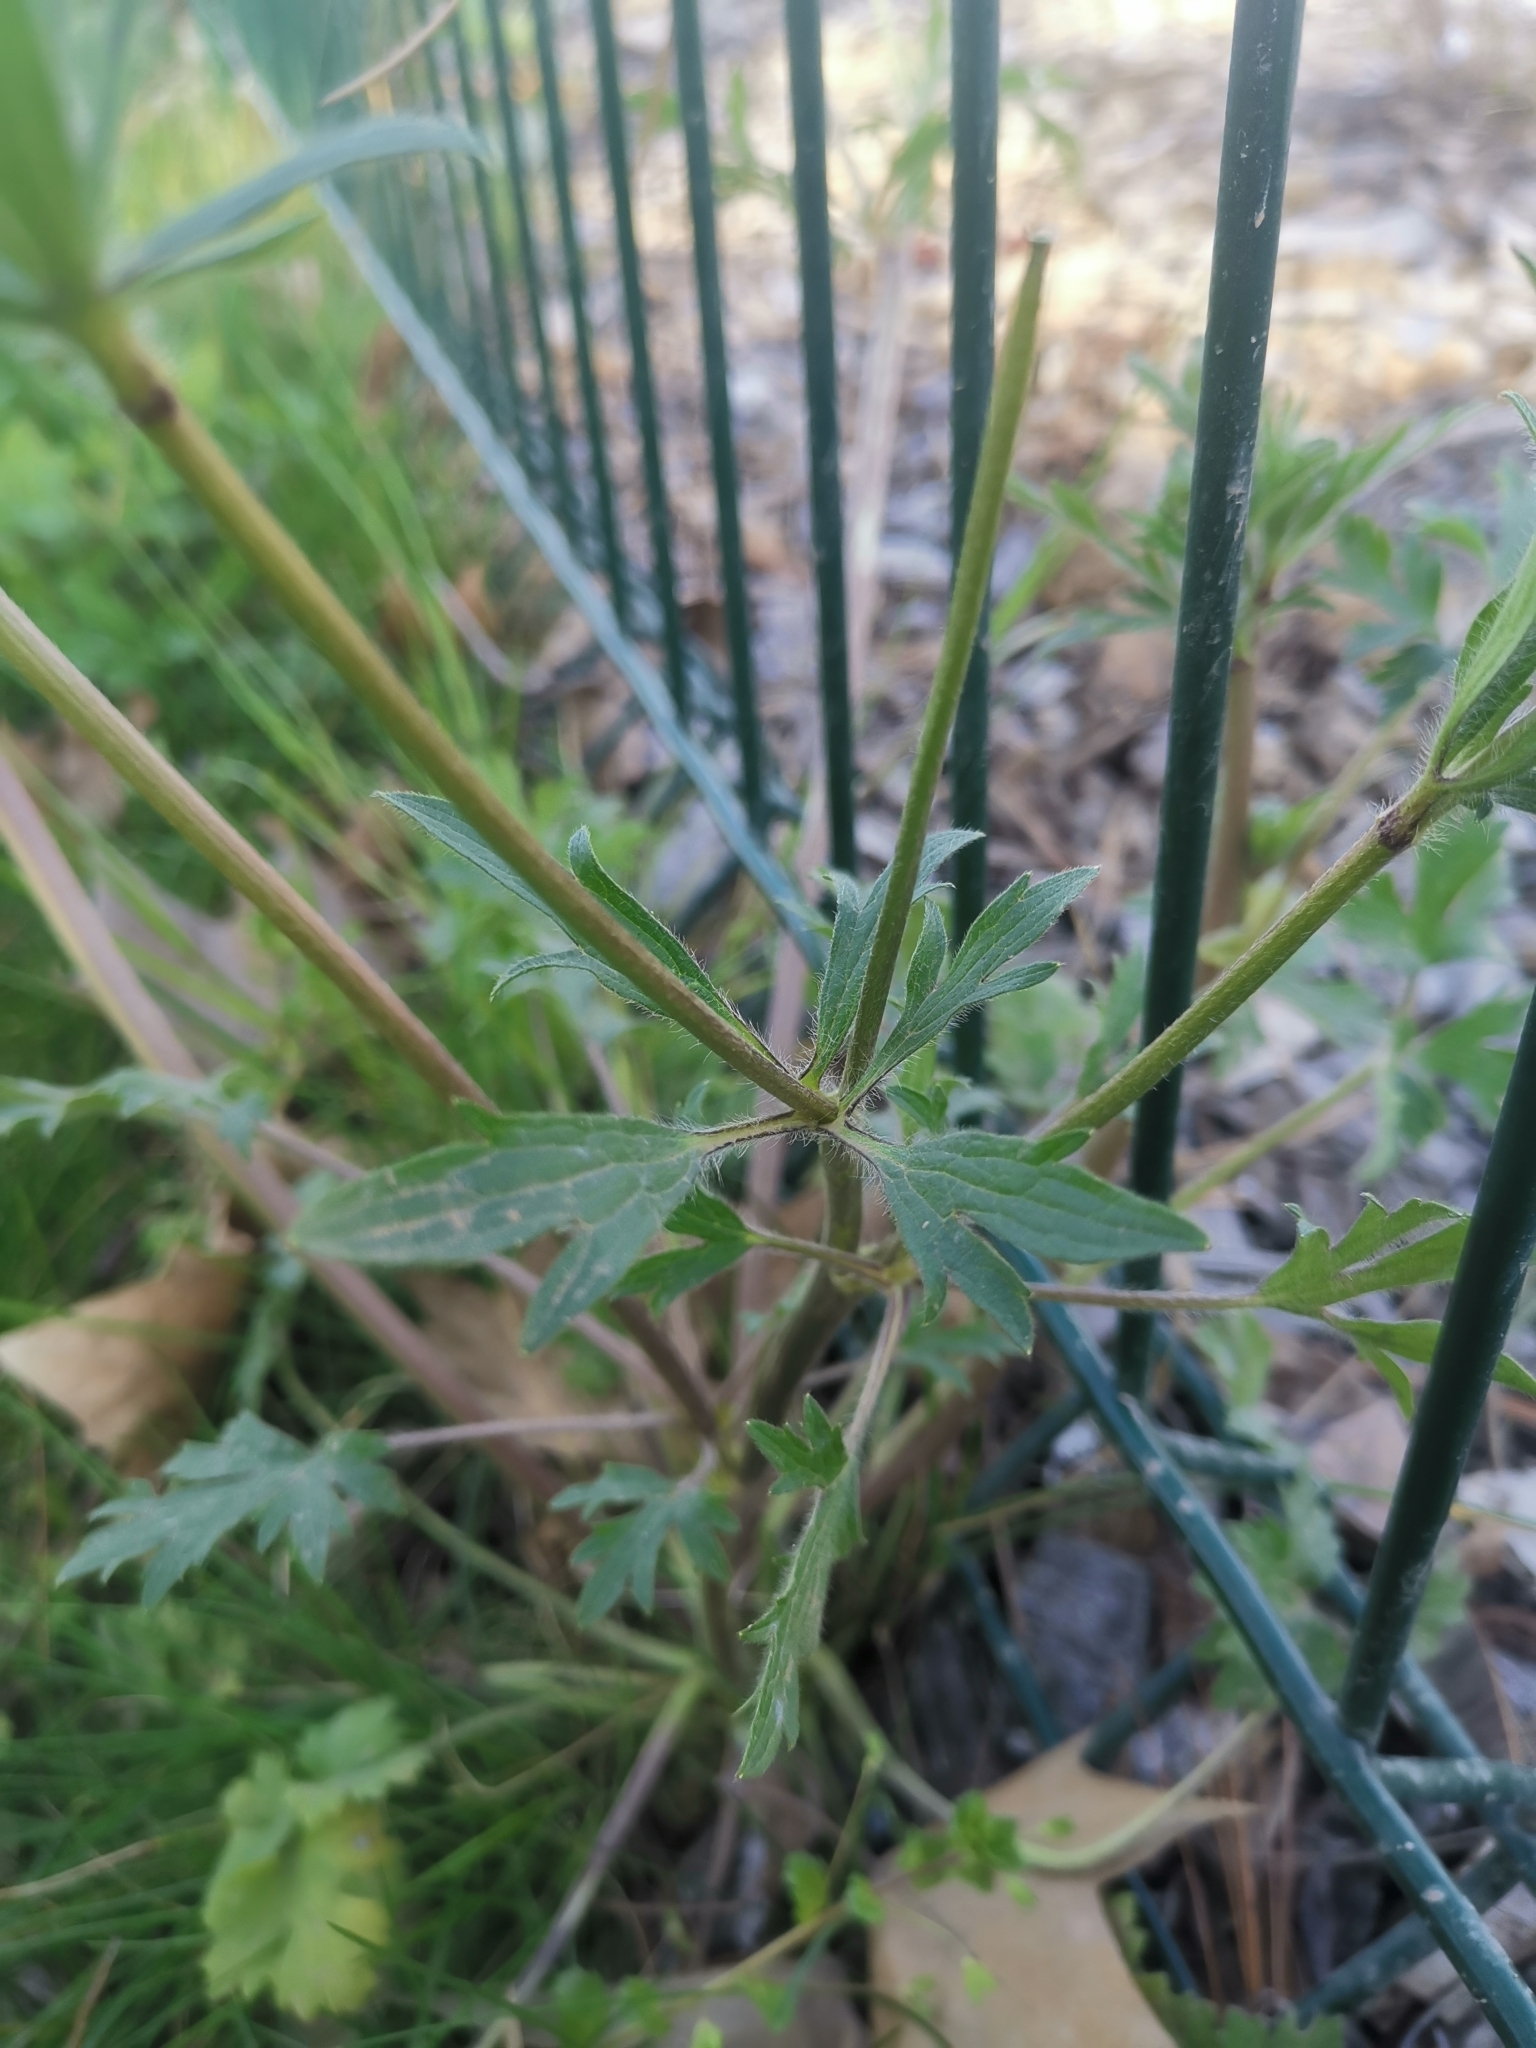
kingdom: Plantae
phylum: Tracheophyta
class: Magnoliopsida
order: Ranunculales
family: Ranunculaceae
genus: Ranunculus
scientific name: Ranunculus bulbosus
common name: Bulbous buttercup
